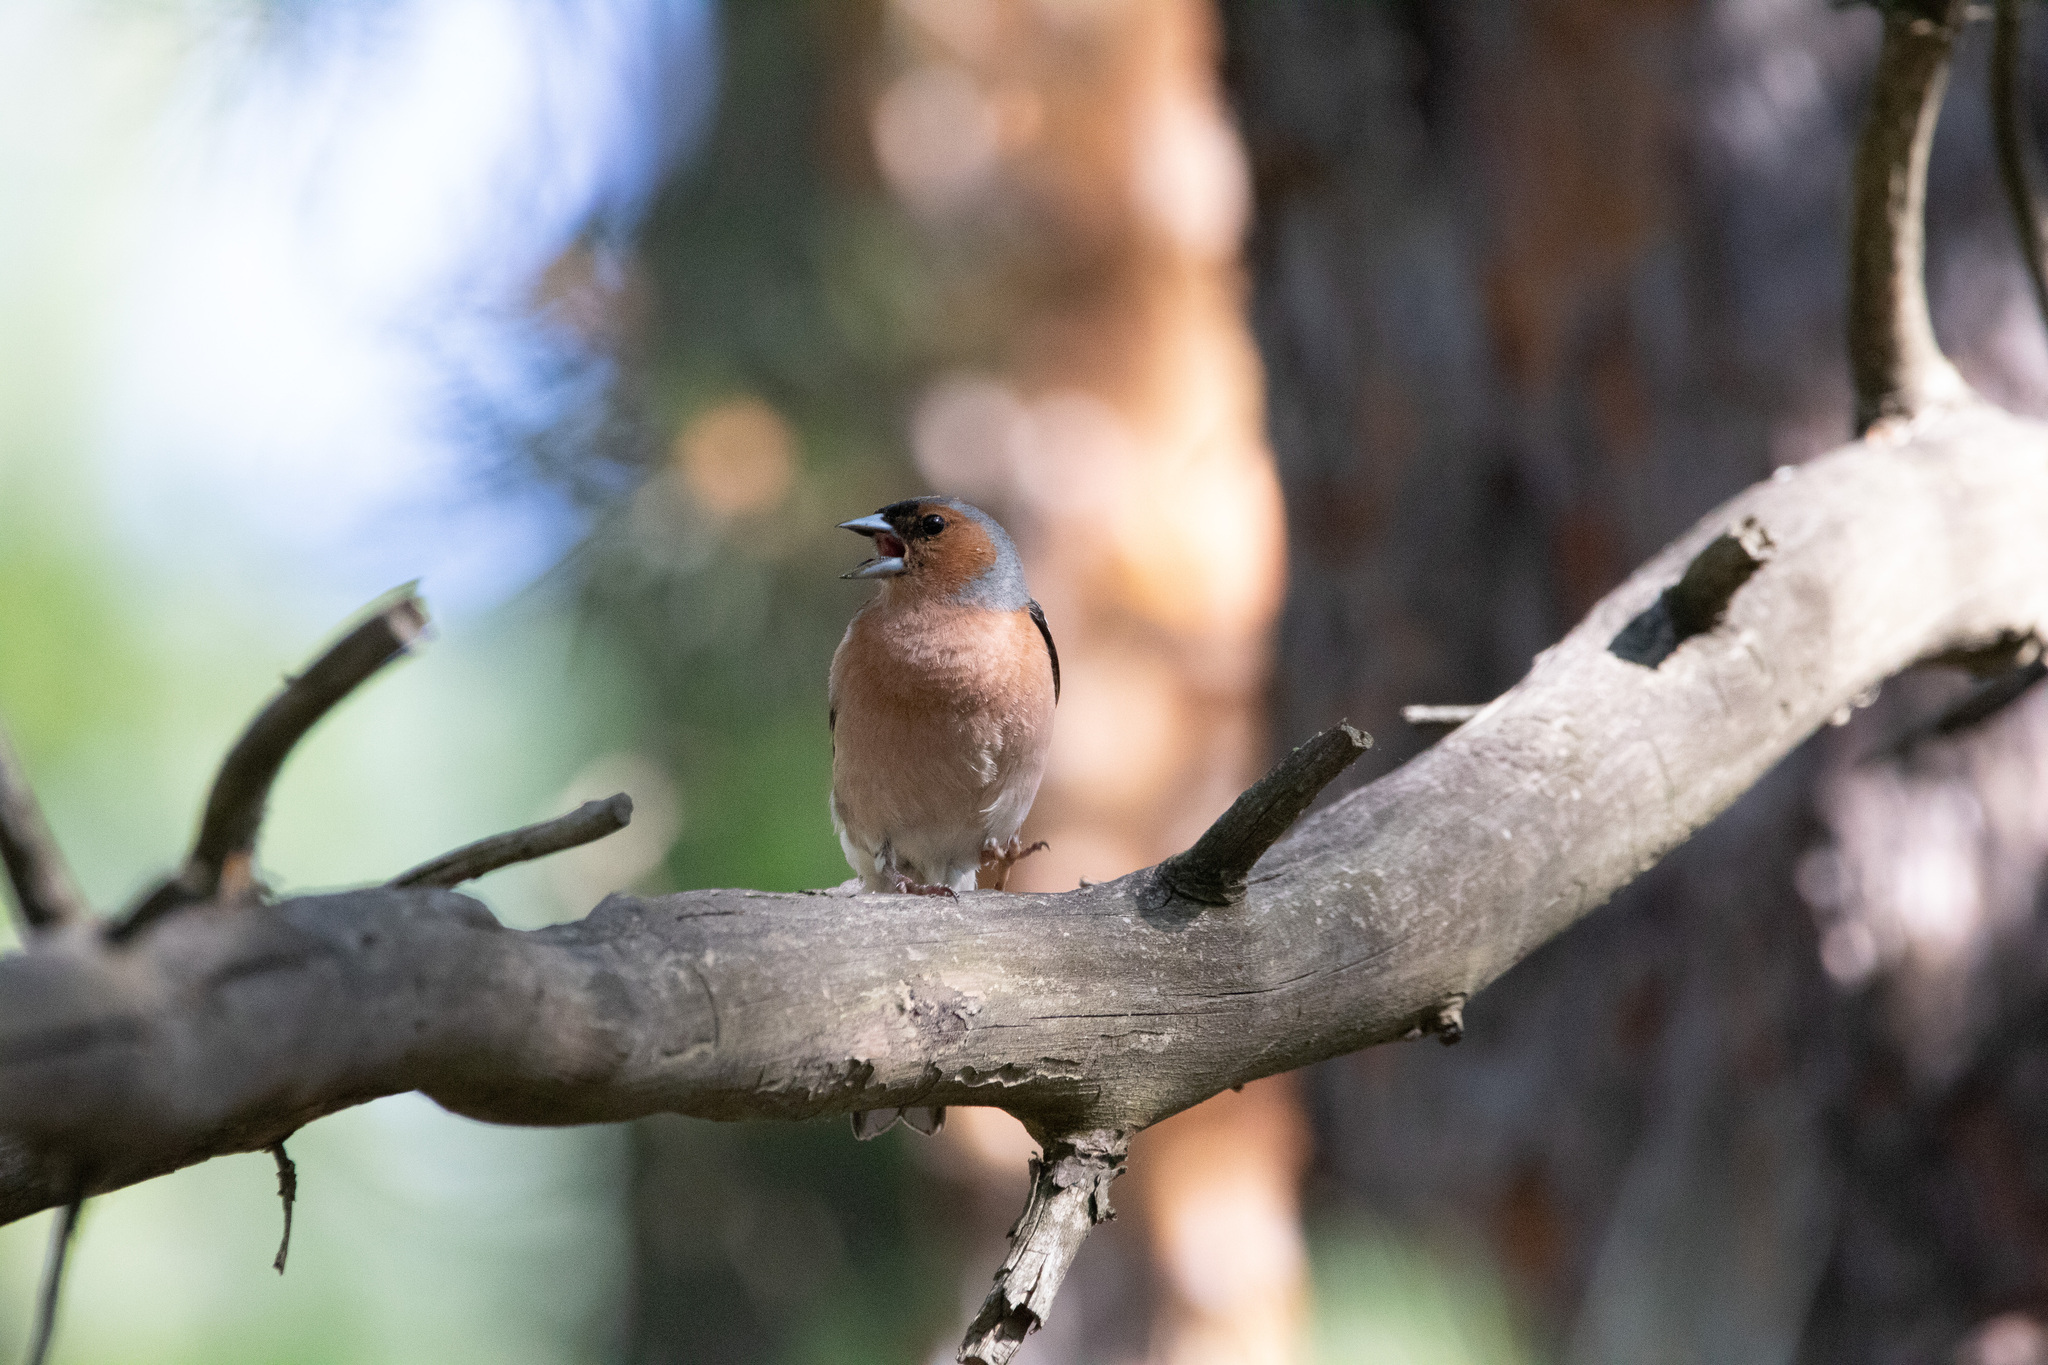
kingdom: Animalia
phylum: Chordata
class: Aves
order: Passeriformes
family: Fringillidae
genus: Fringilla
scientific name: Fringilla coelebs
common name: Common chaffinch
